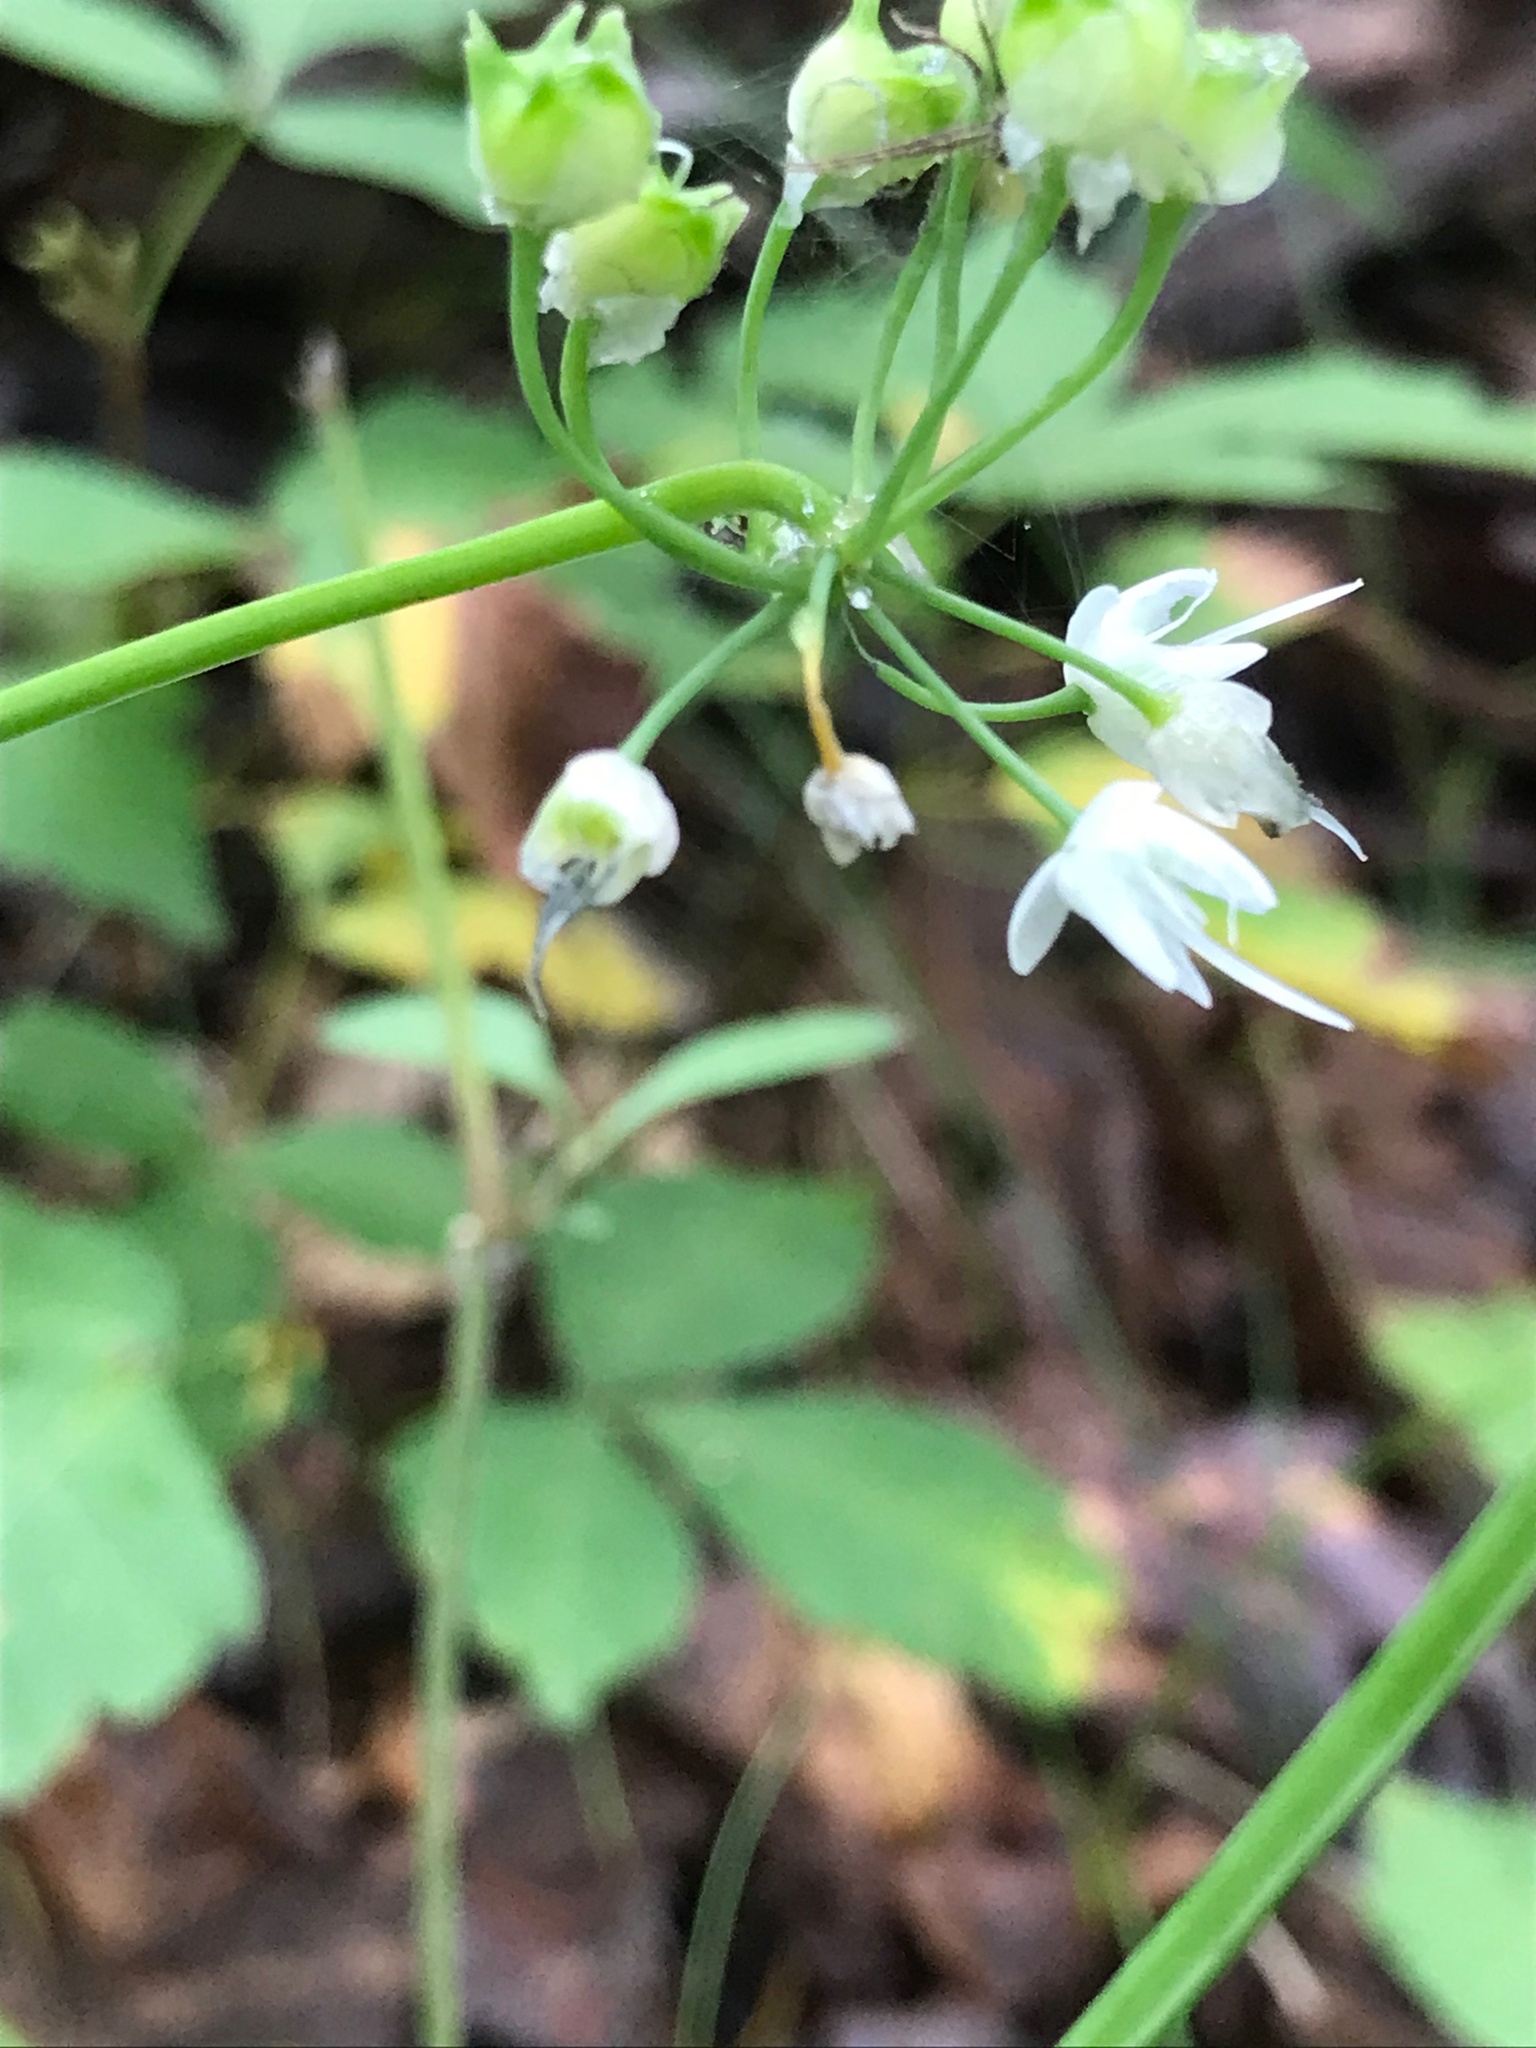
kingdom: Plantae
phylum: Tracheophyta
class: Liliopsida
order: Asparagales
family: Amaryllidaceae
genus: Allium
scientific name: Allium cernuum
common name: Nodding onion
